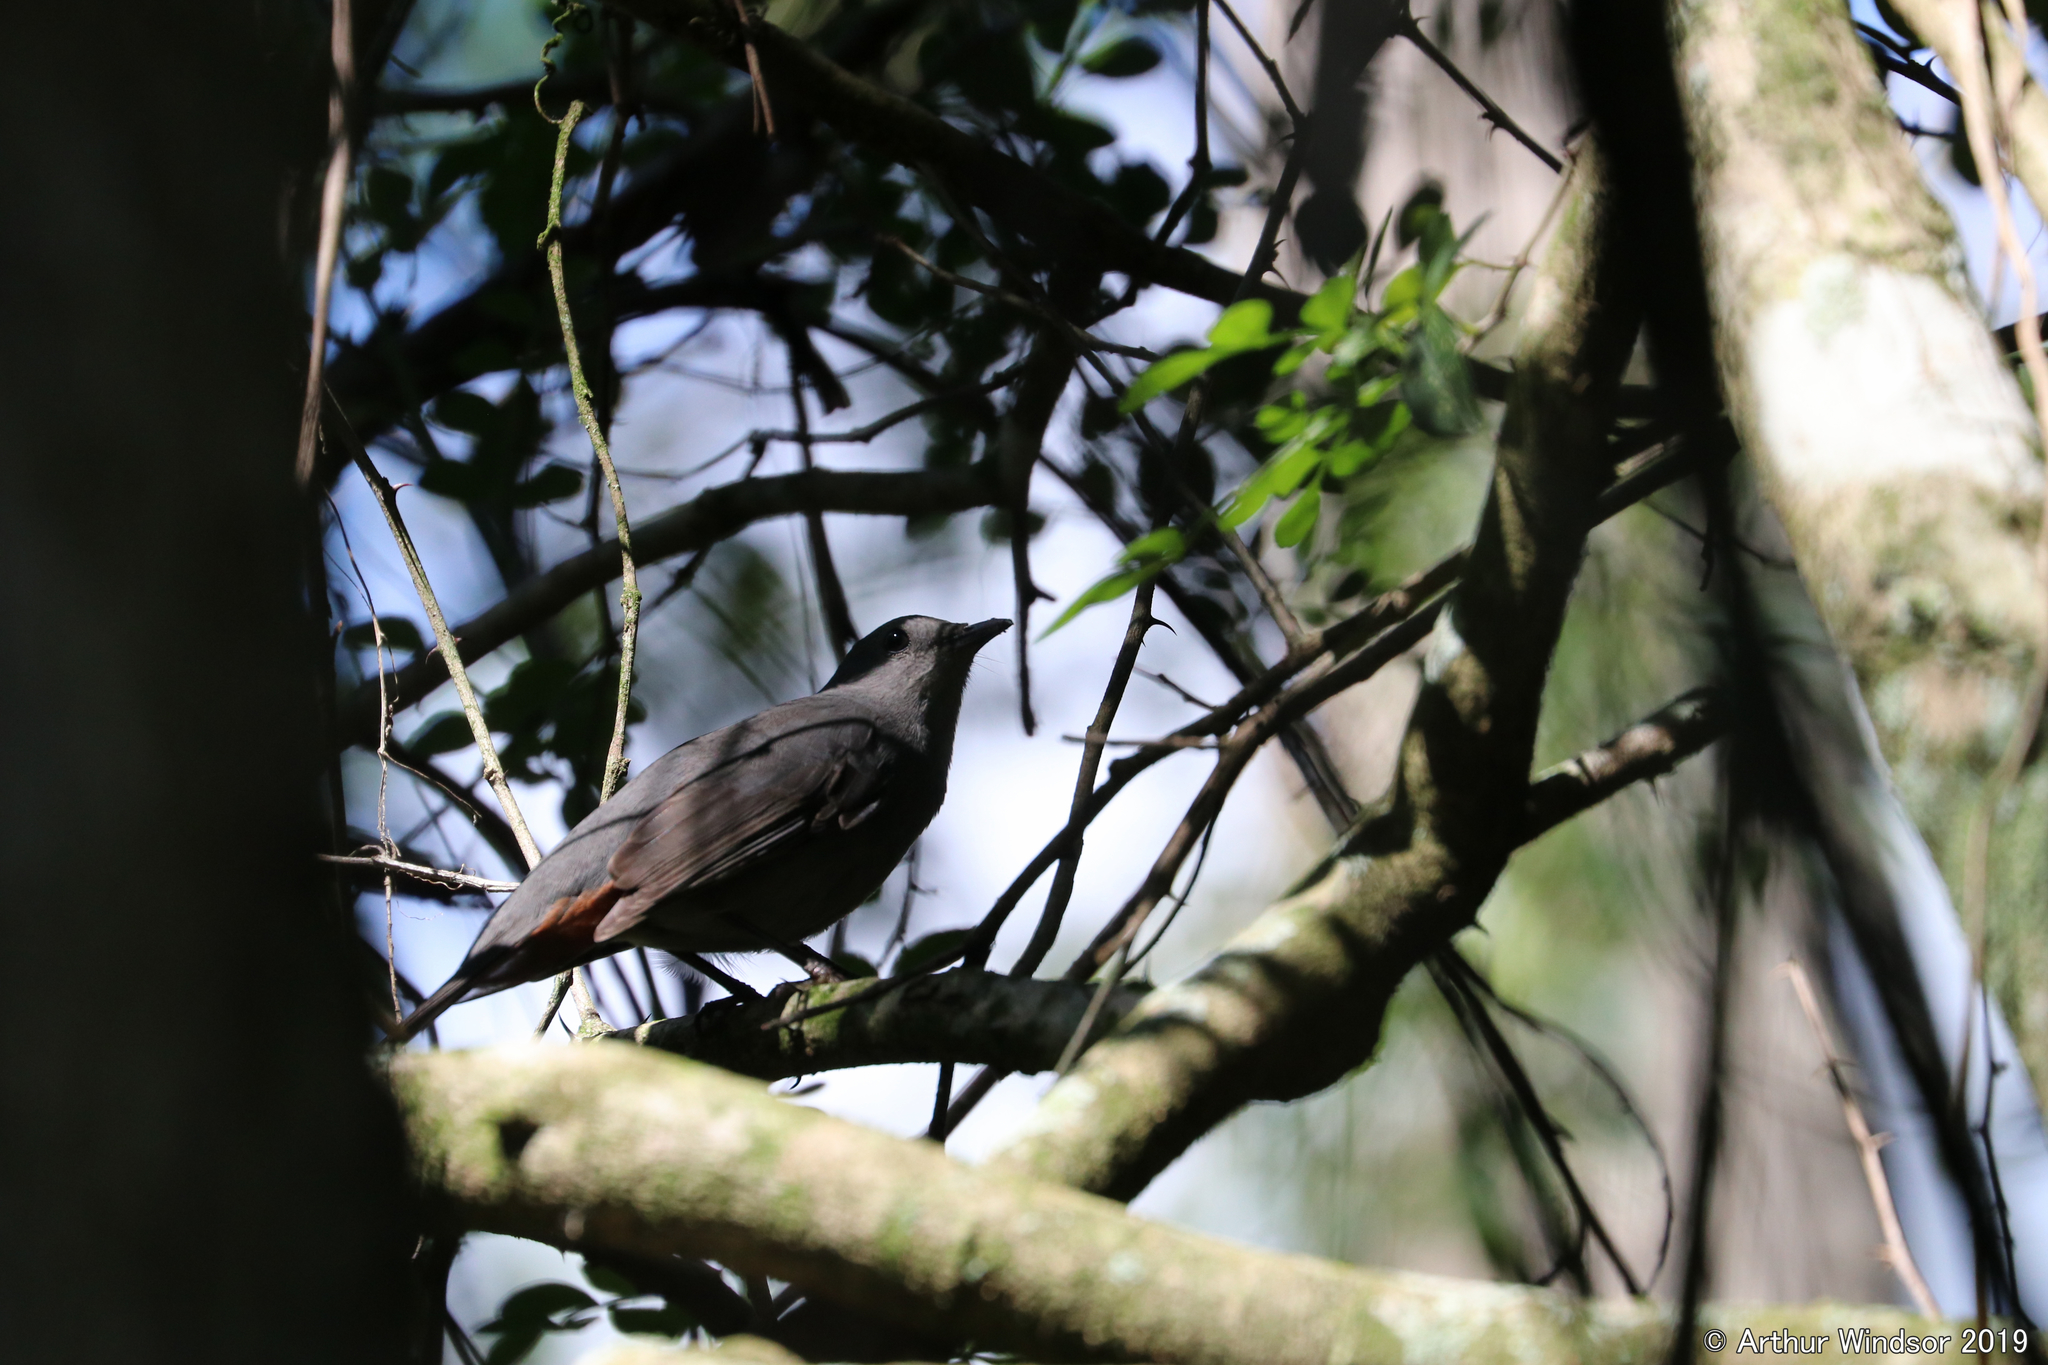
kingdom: Animalia
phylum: Chordata
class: Aves
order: Passeriformes
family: Mimidae
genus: Dumetella
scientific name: Dumetella carolinensis
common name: Gray catbird
